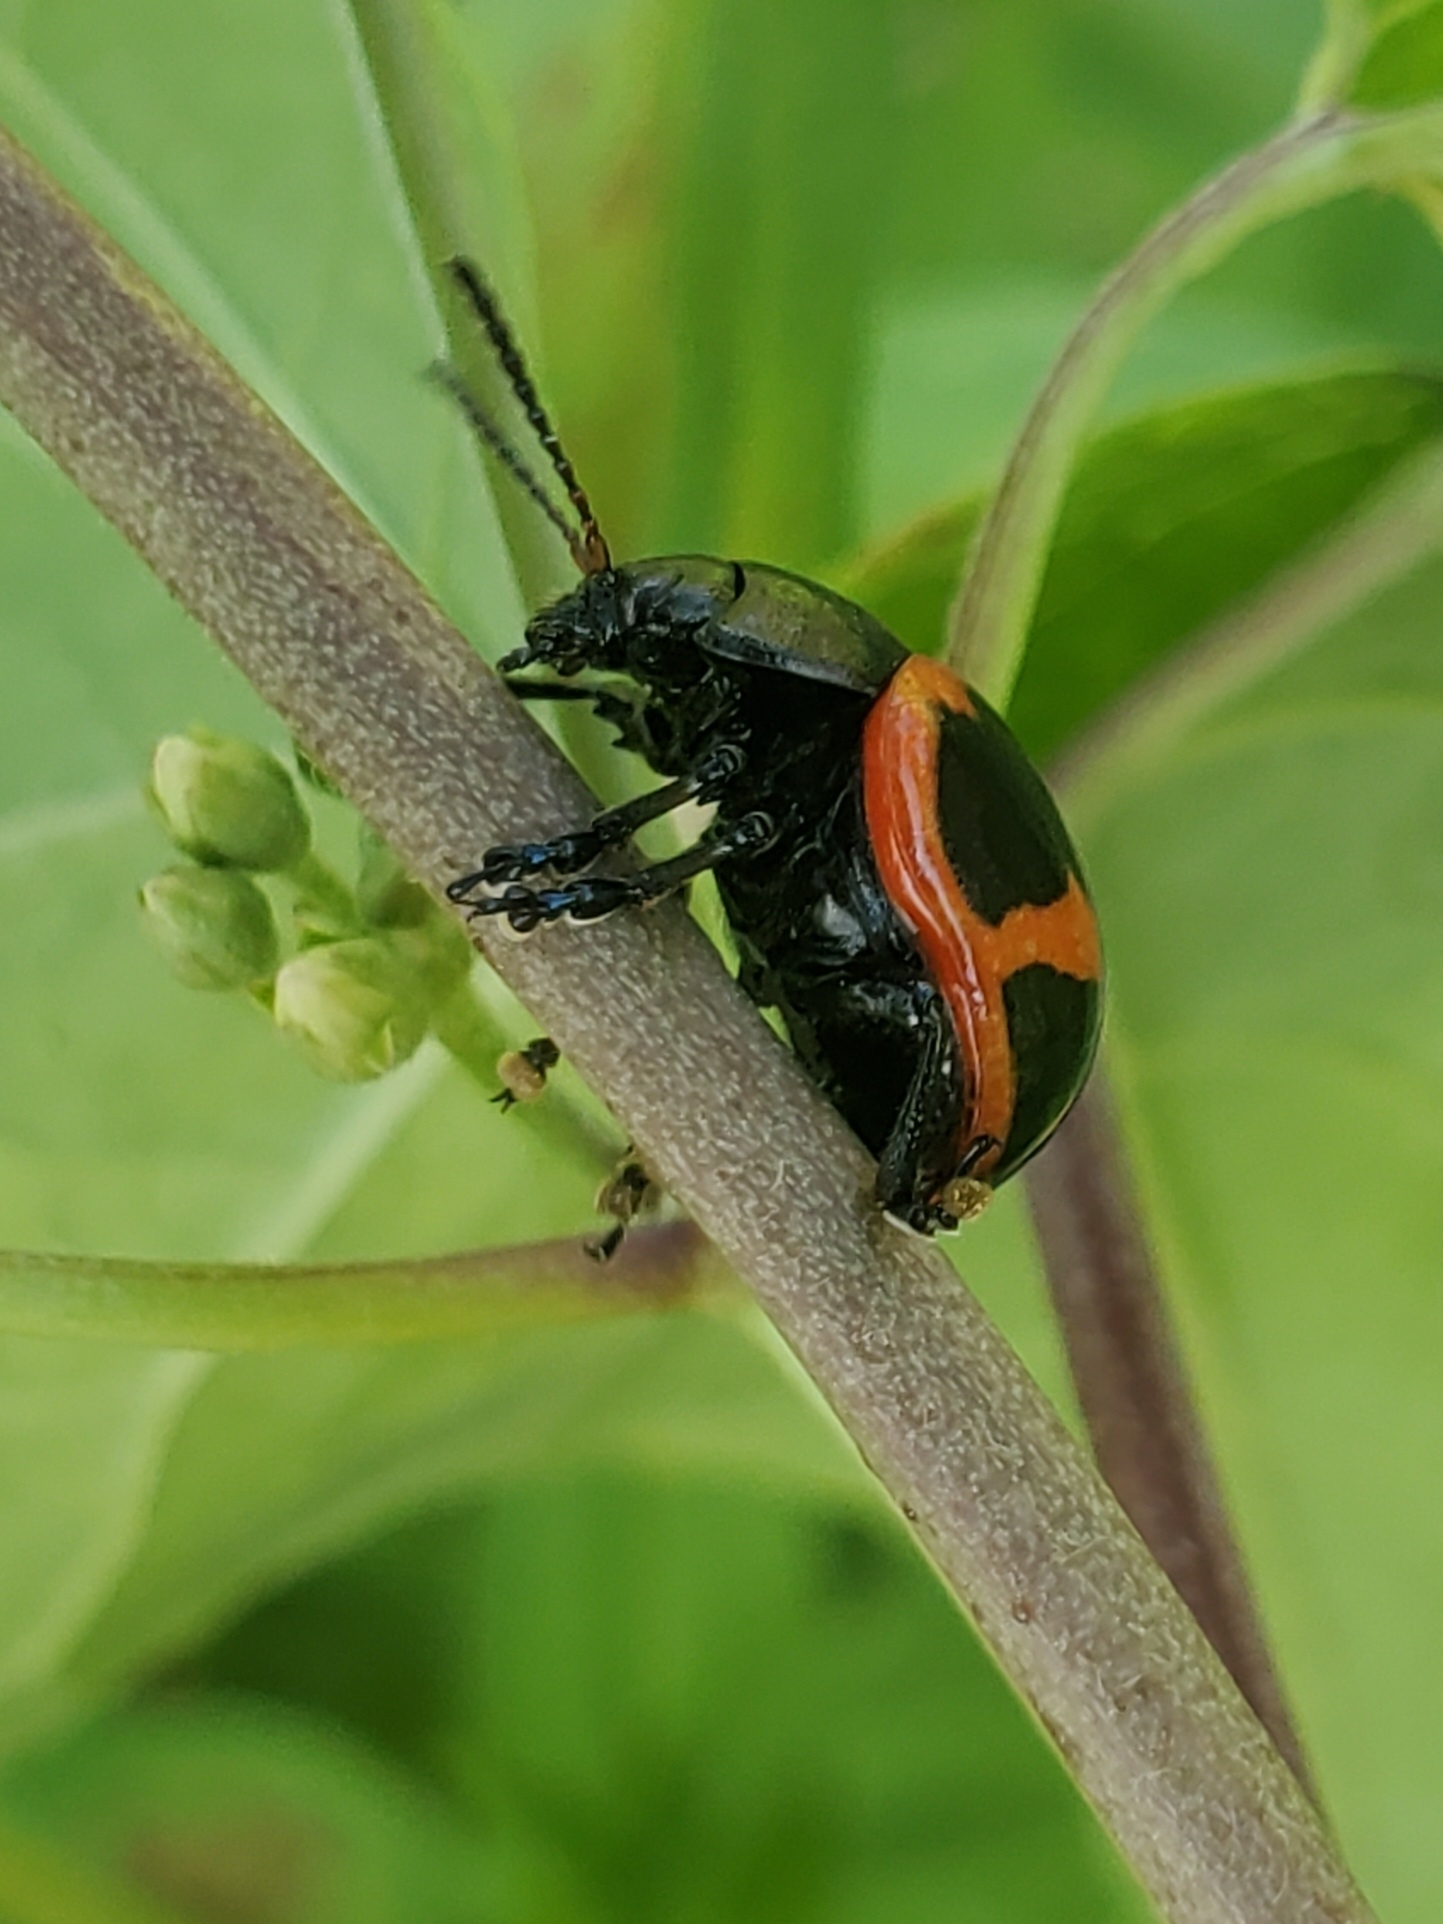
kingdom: Animalia
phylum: Arthropoda
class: Insecta
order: Coleoptera
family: Chrysomelidae
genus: Labidomera
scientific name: Labidomera clivicollis
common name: Swamp milkweed leaf beetle
